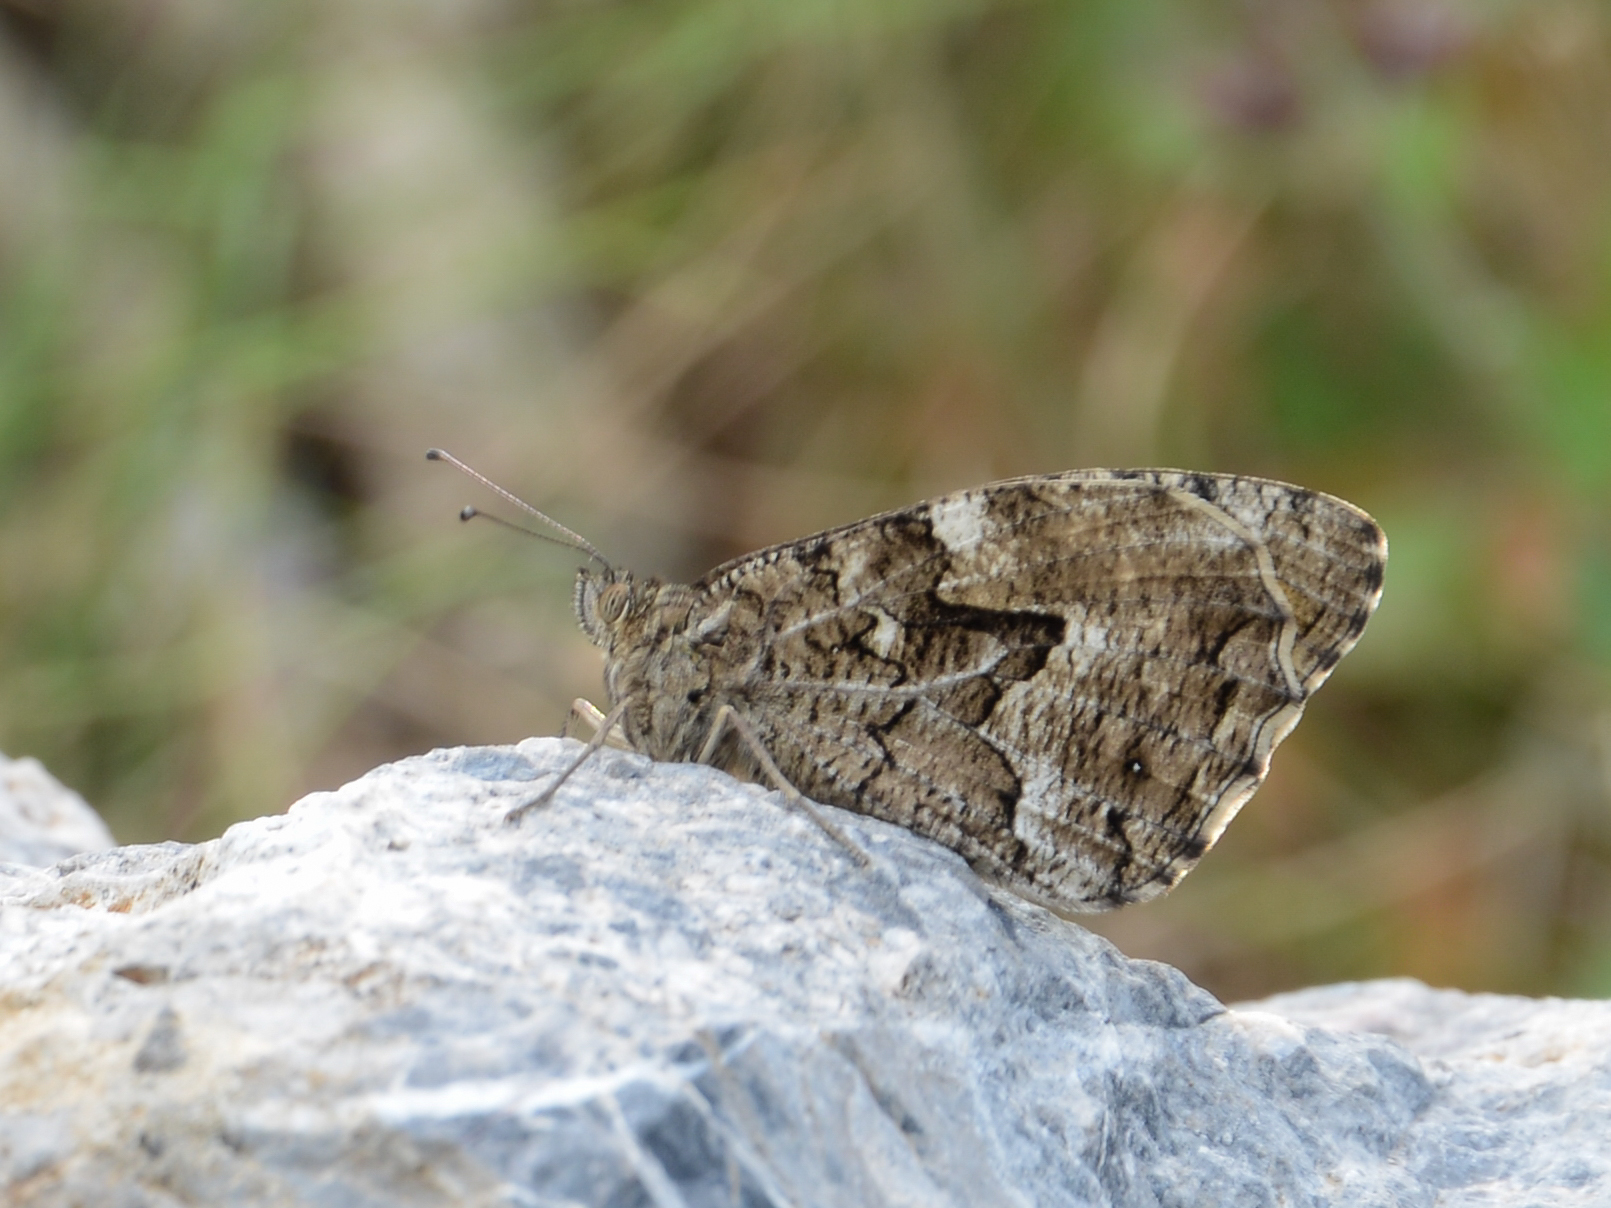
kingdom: Animalia
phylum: Arthropoda
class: Insecta
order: Lepidoptera
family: Nymphalidae
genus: Hipparchia
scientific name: Hipparchia cretica
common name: Cretan grayling
